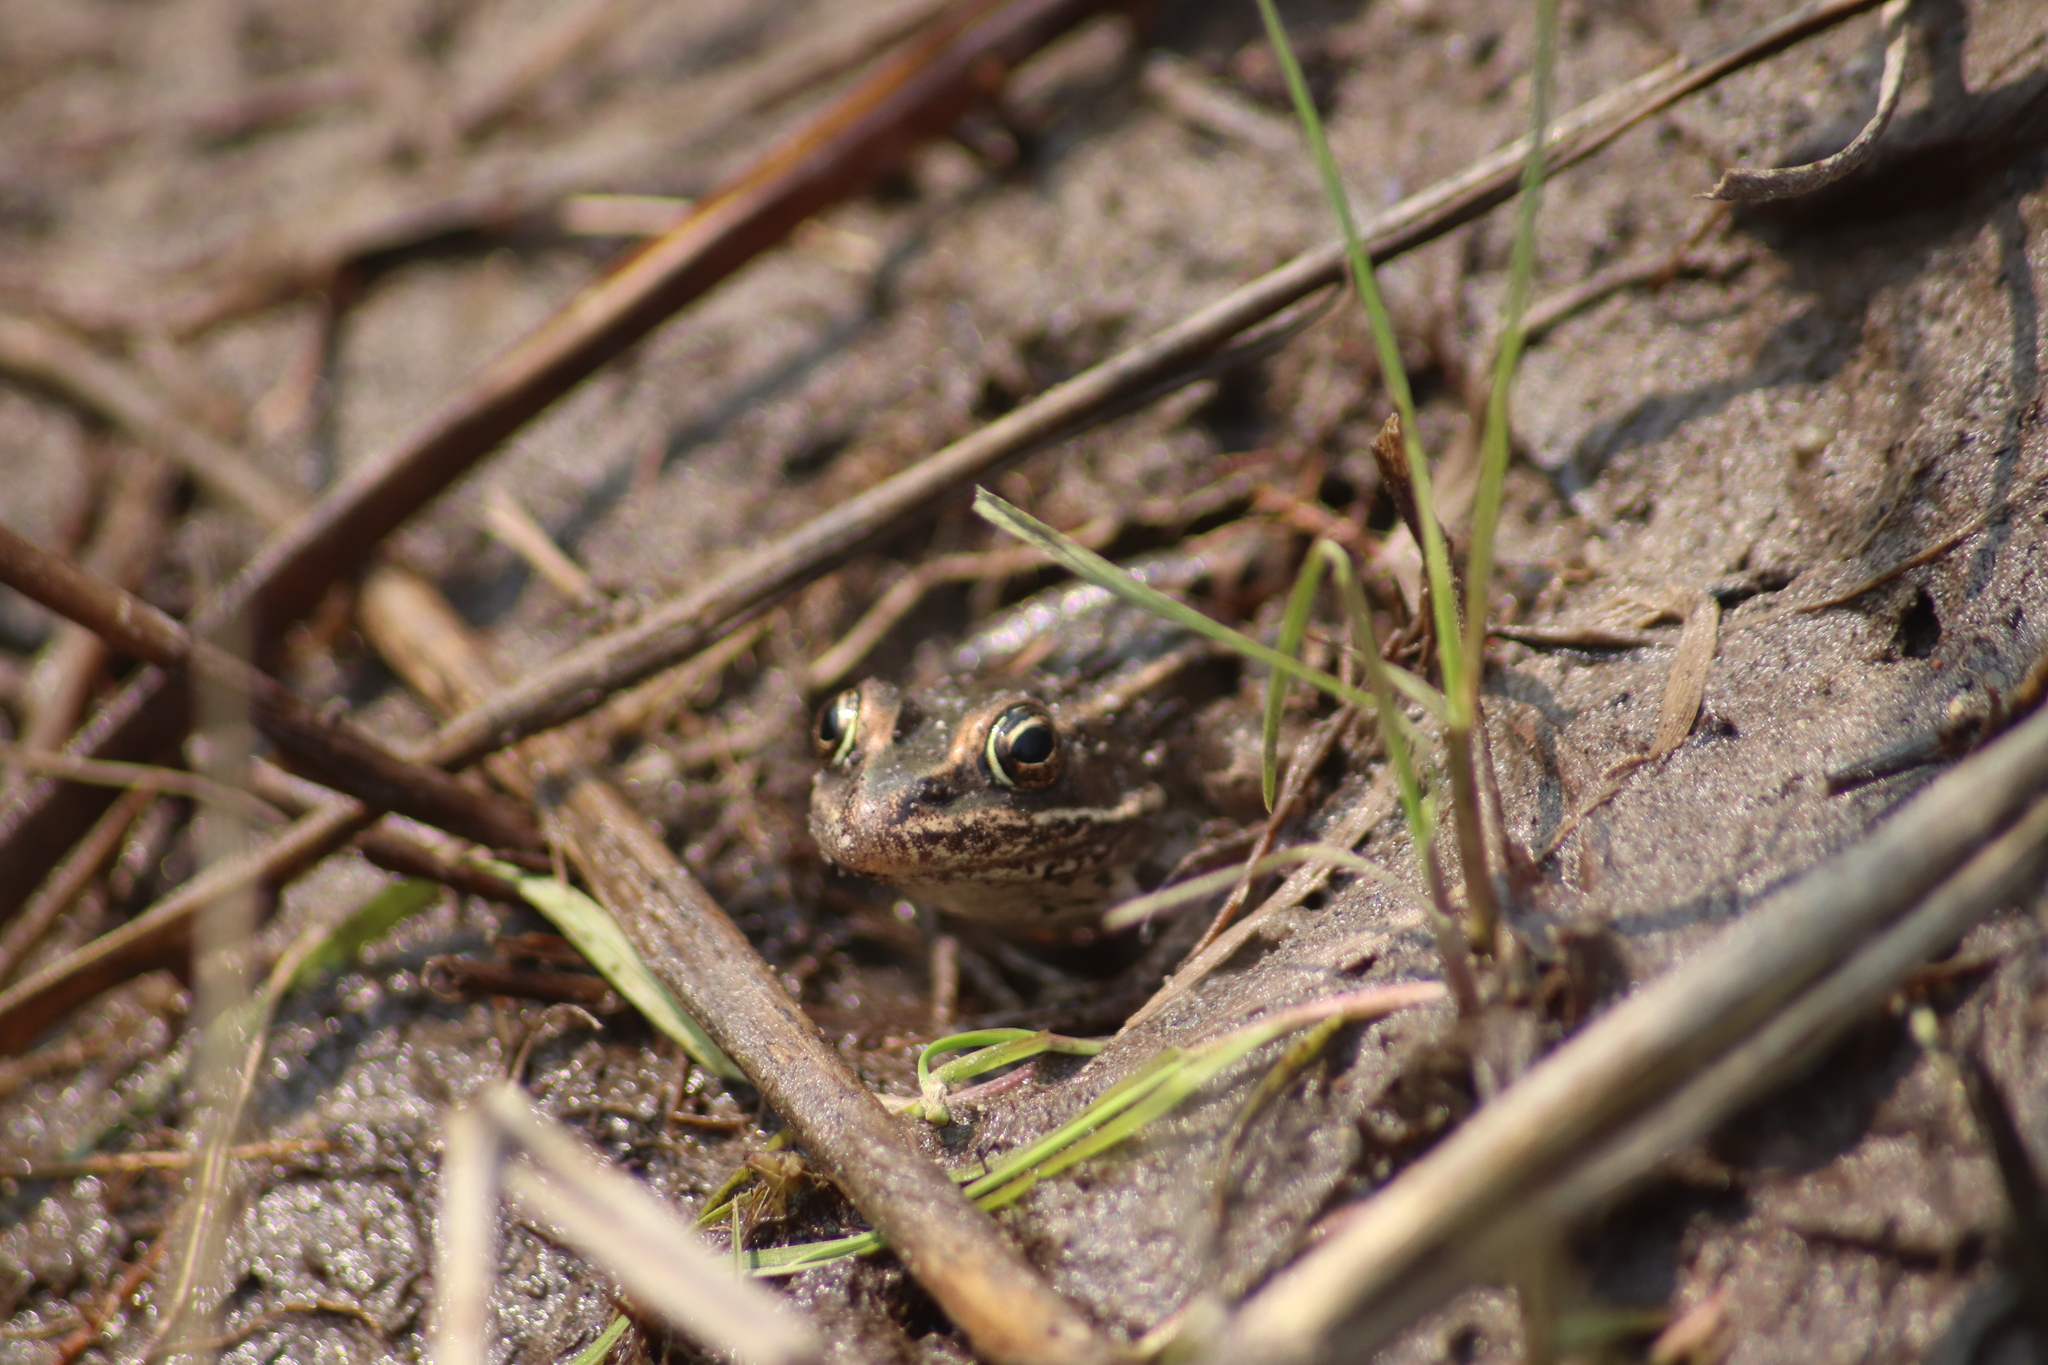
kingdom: Animalia
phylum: Chordata
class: Amphibia
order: Anura
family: Ranidae
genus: Lithobates
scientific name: Lithobates pipiens
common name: Northern leopard frog
